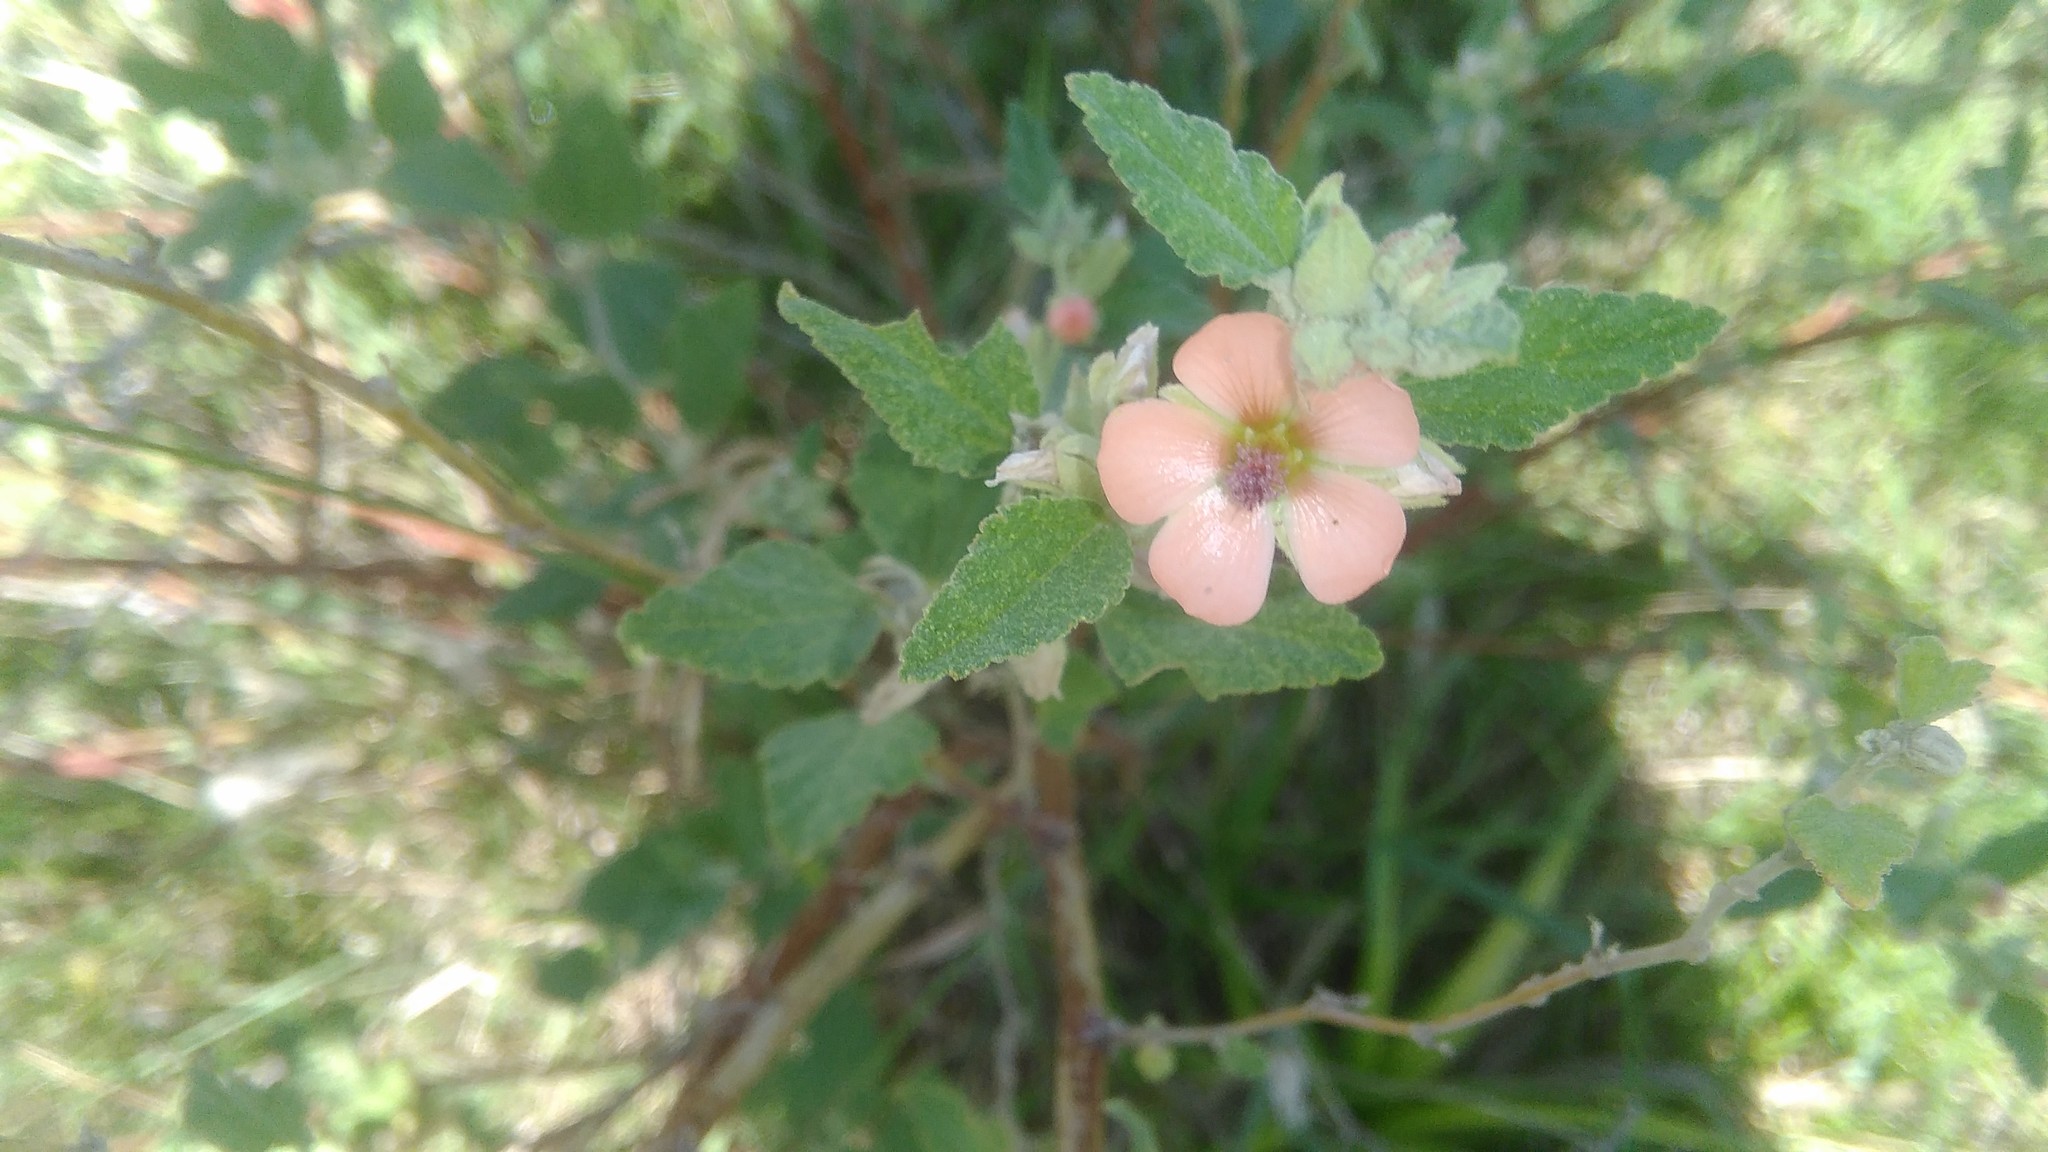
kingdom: Plantae
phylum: Tracheophyta
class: Magnoliopsida
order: Malvales
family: Malvaceae
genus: Sphaeralcea
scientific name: Sphaeralcea bonariensis
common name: Latin globemallow
